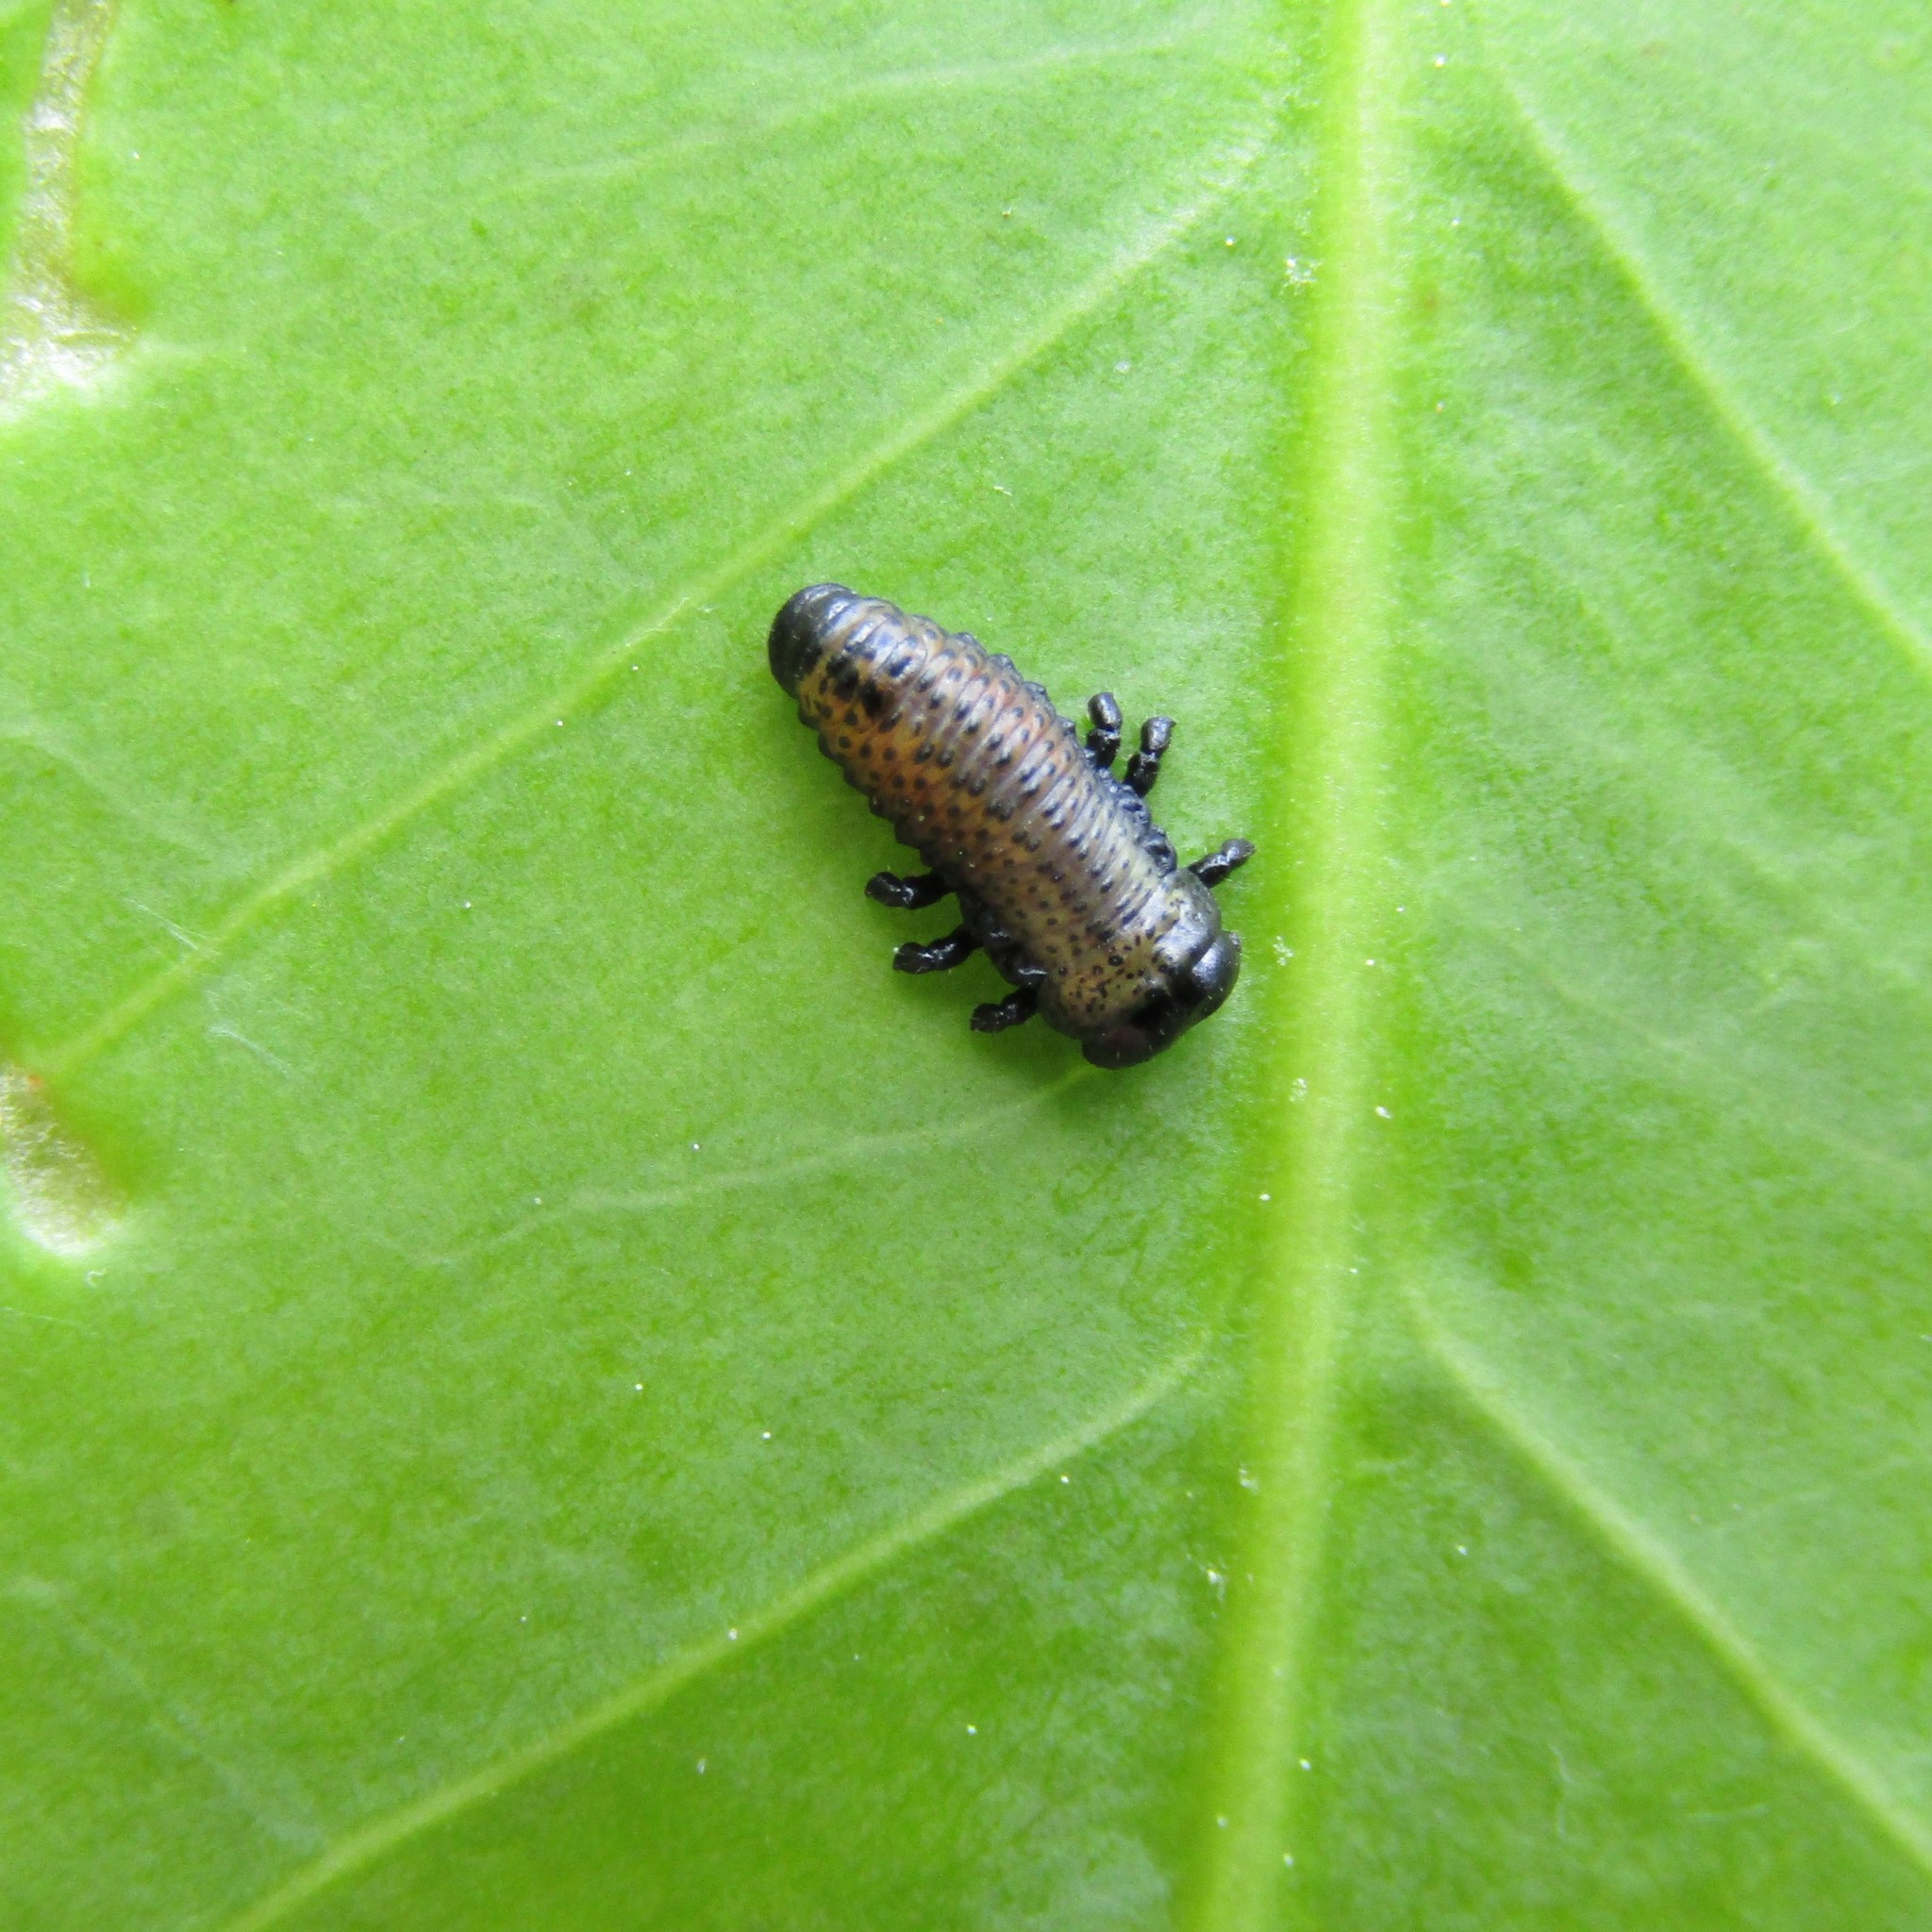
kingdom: Animalia
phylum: Arthropoda
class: Insecta
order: Coleoptera
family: Chrysomelidae
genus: Paropsis
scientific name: Paropsis charybdis
